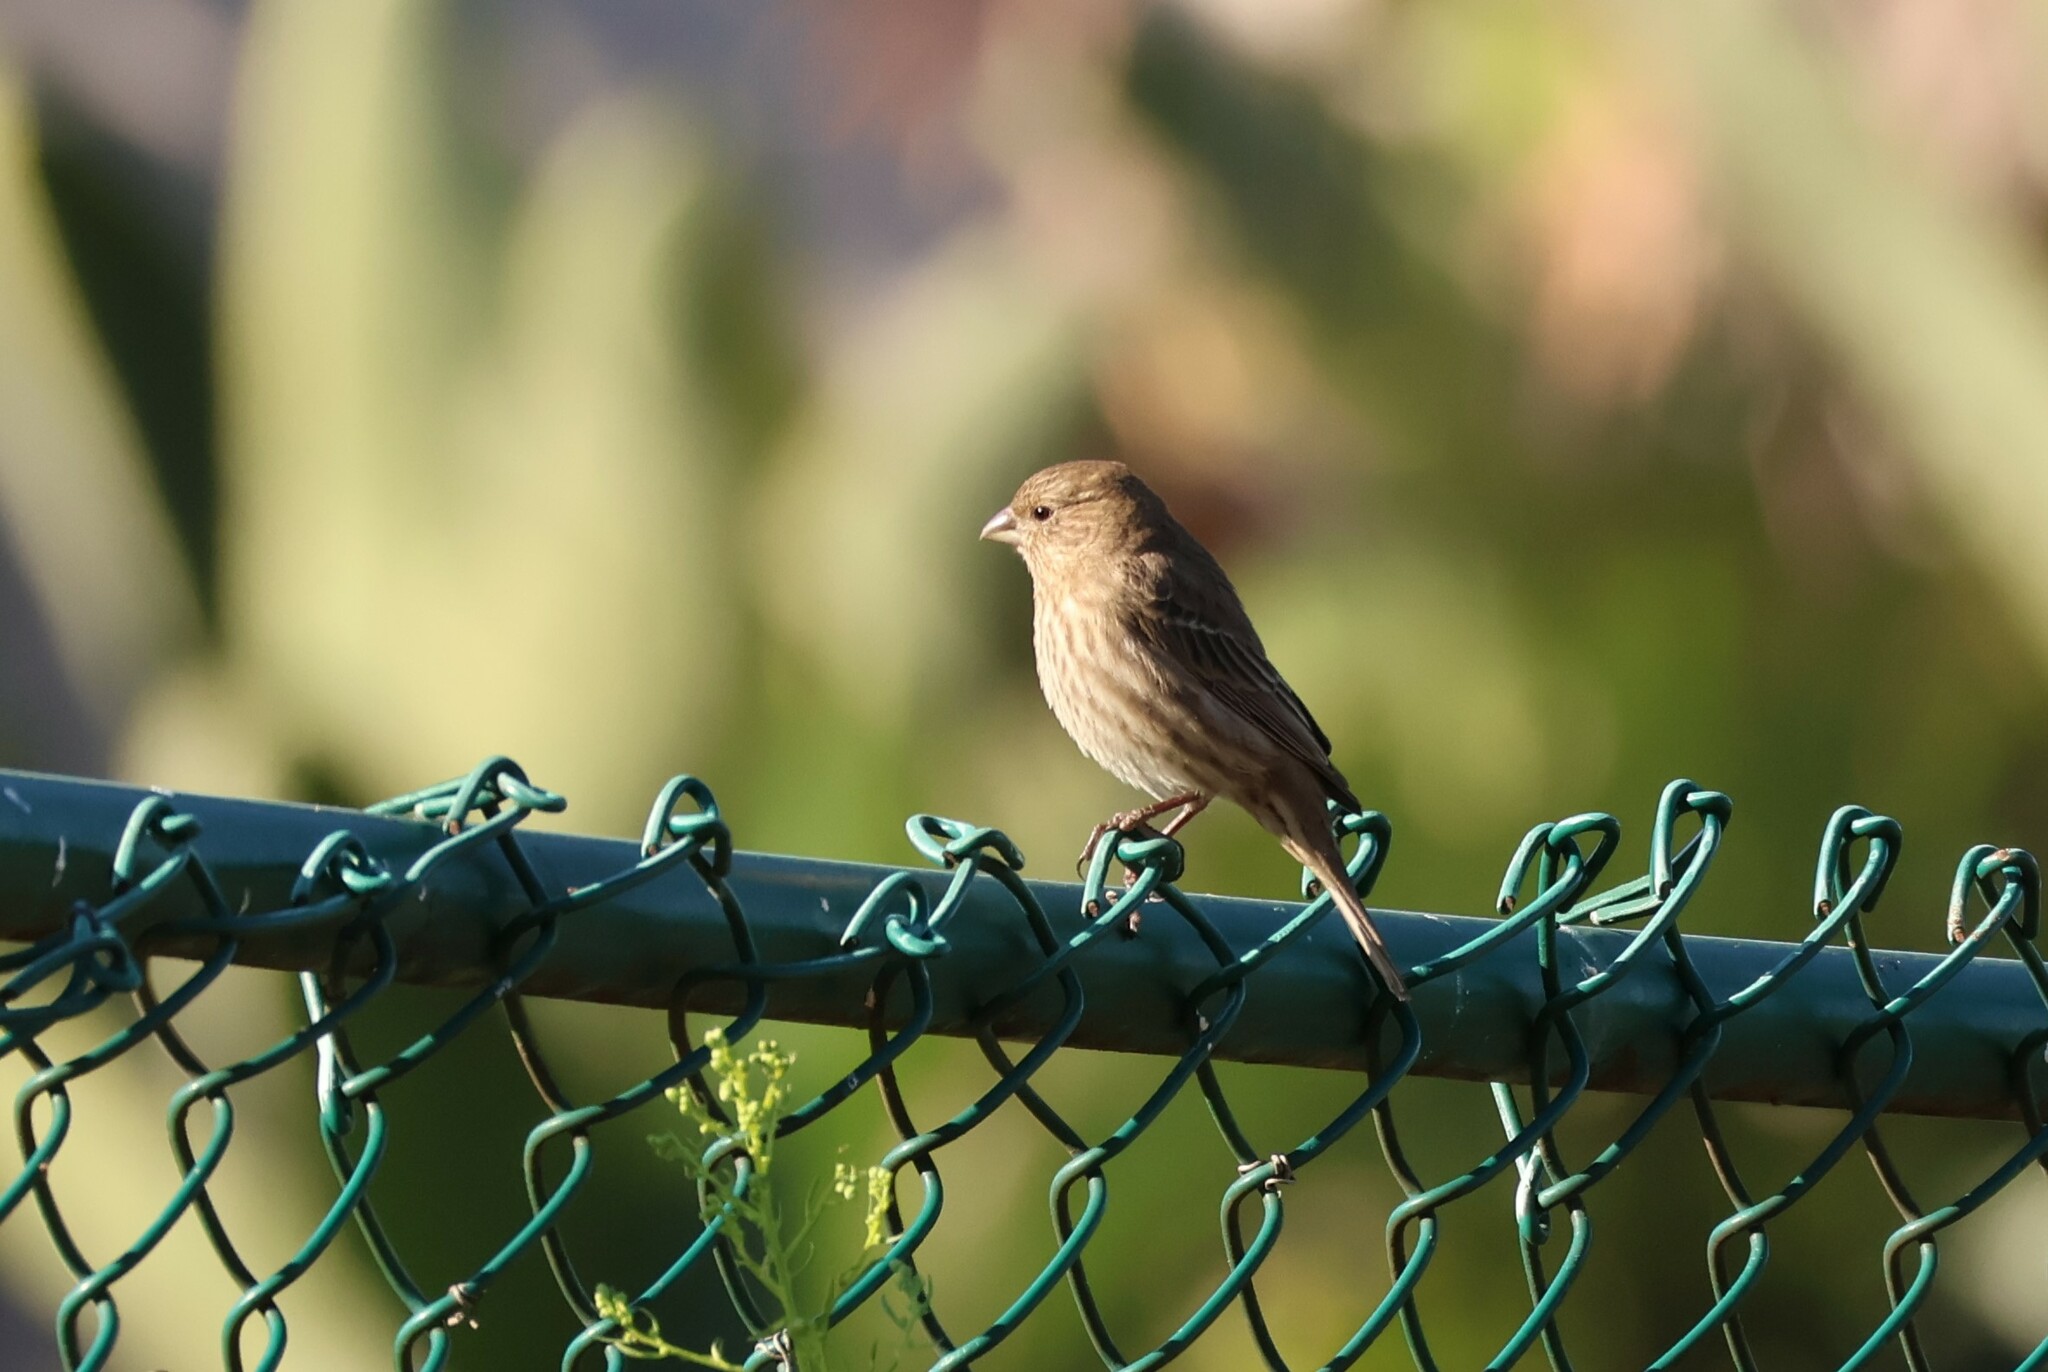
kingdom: Animalia
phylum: Chordata
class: Aves
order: Passeriformes
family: Fringillidae
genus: Haemorhous
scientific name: Haemorhous mexicanus
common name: House finch
